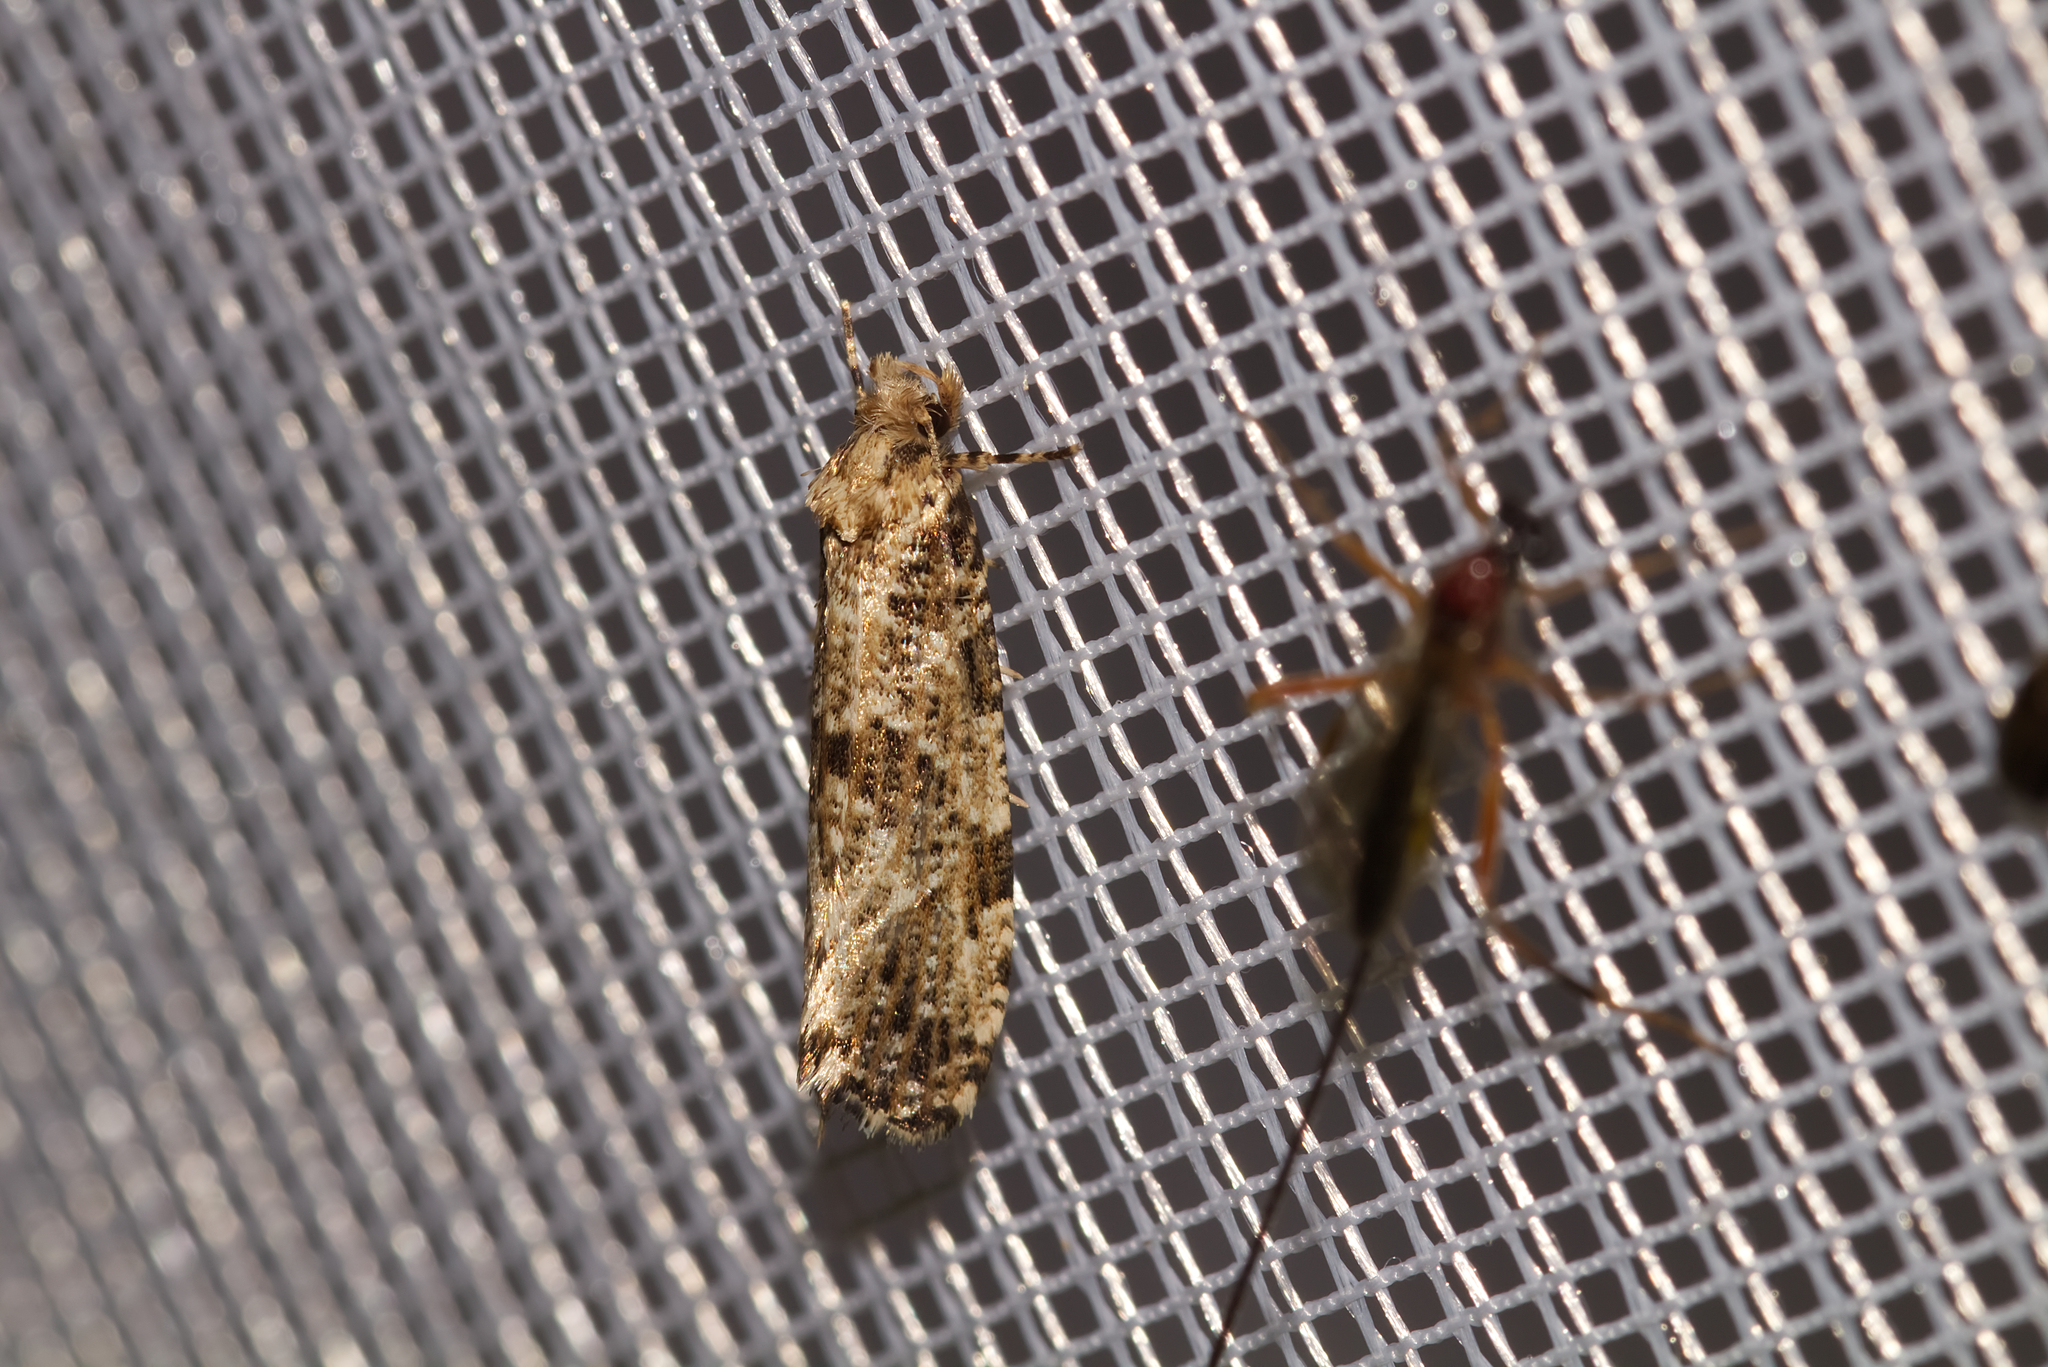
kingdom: Animalia
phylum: Arthropoda
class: Insecta
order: Lepidoptera
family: Tineidae
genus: Morophaga
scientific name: Morophaga choragella
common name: Large clothes
